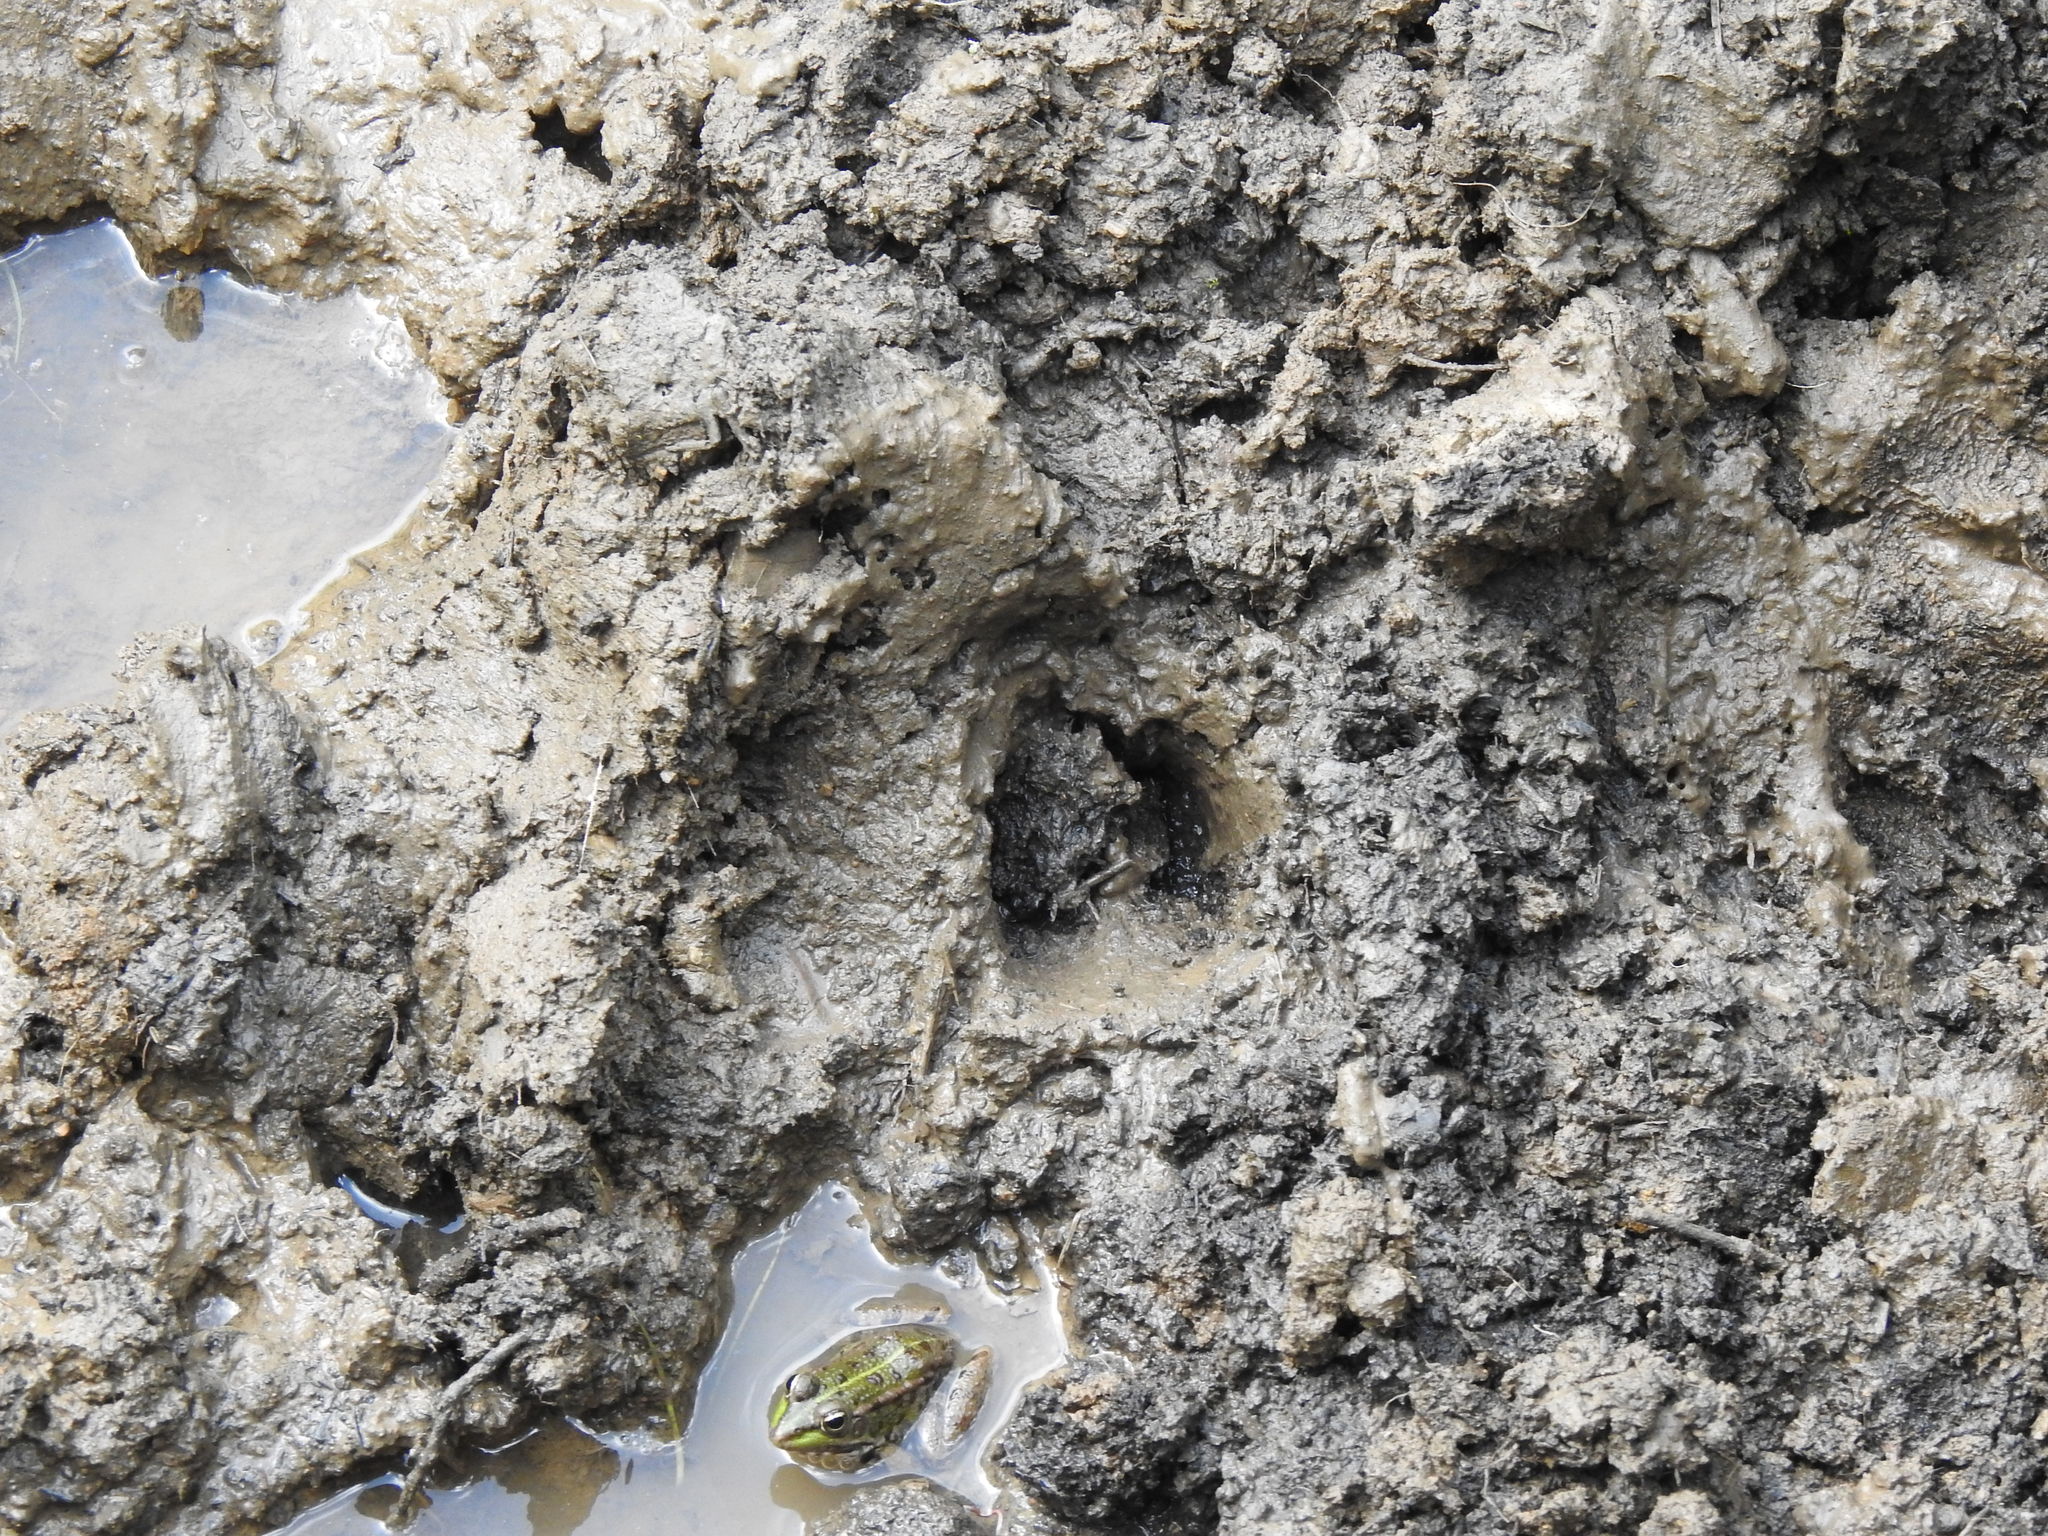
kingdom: Animalia
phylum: Chordata
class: Mammalia
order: Artiodactyla
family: Suidae
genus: Sus
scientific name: Sus scrofa
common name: Wild boar
